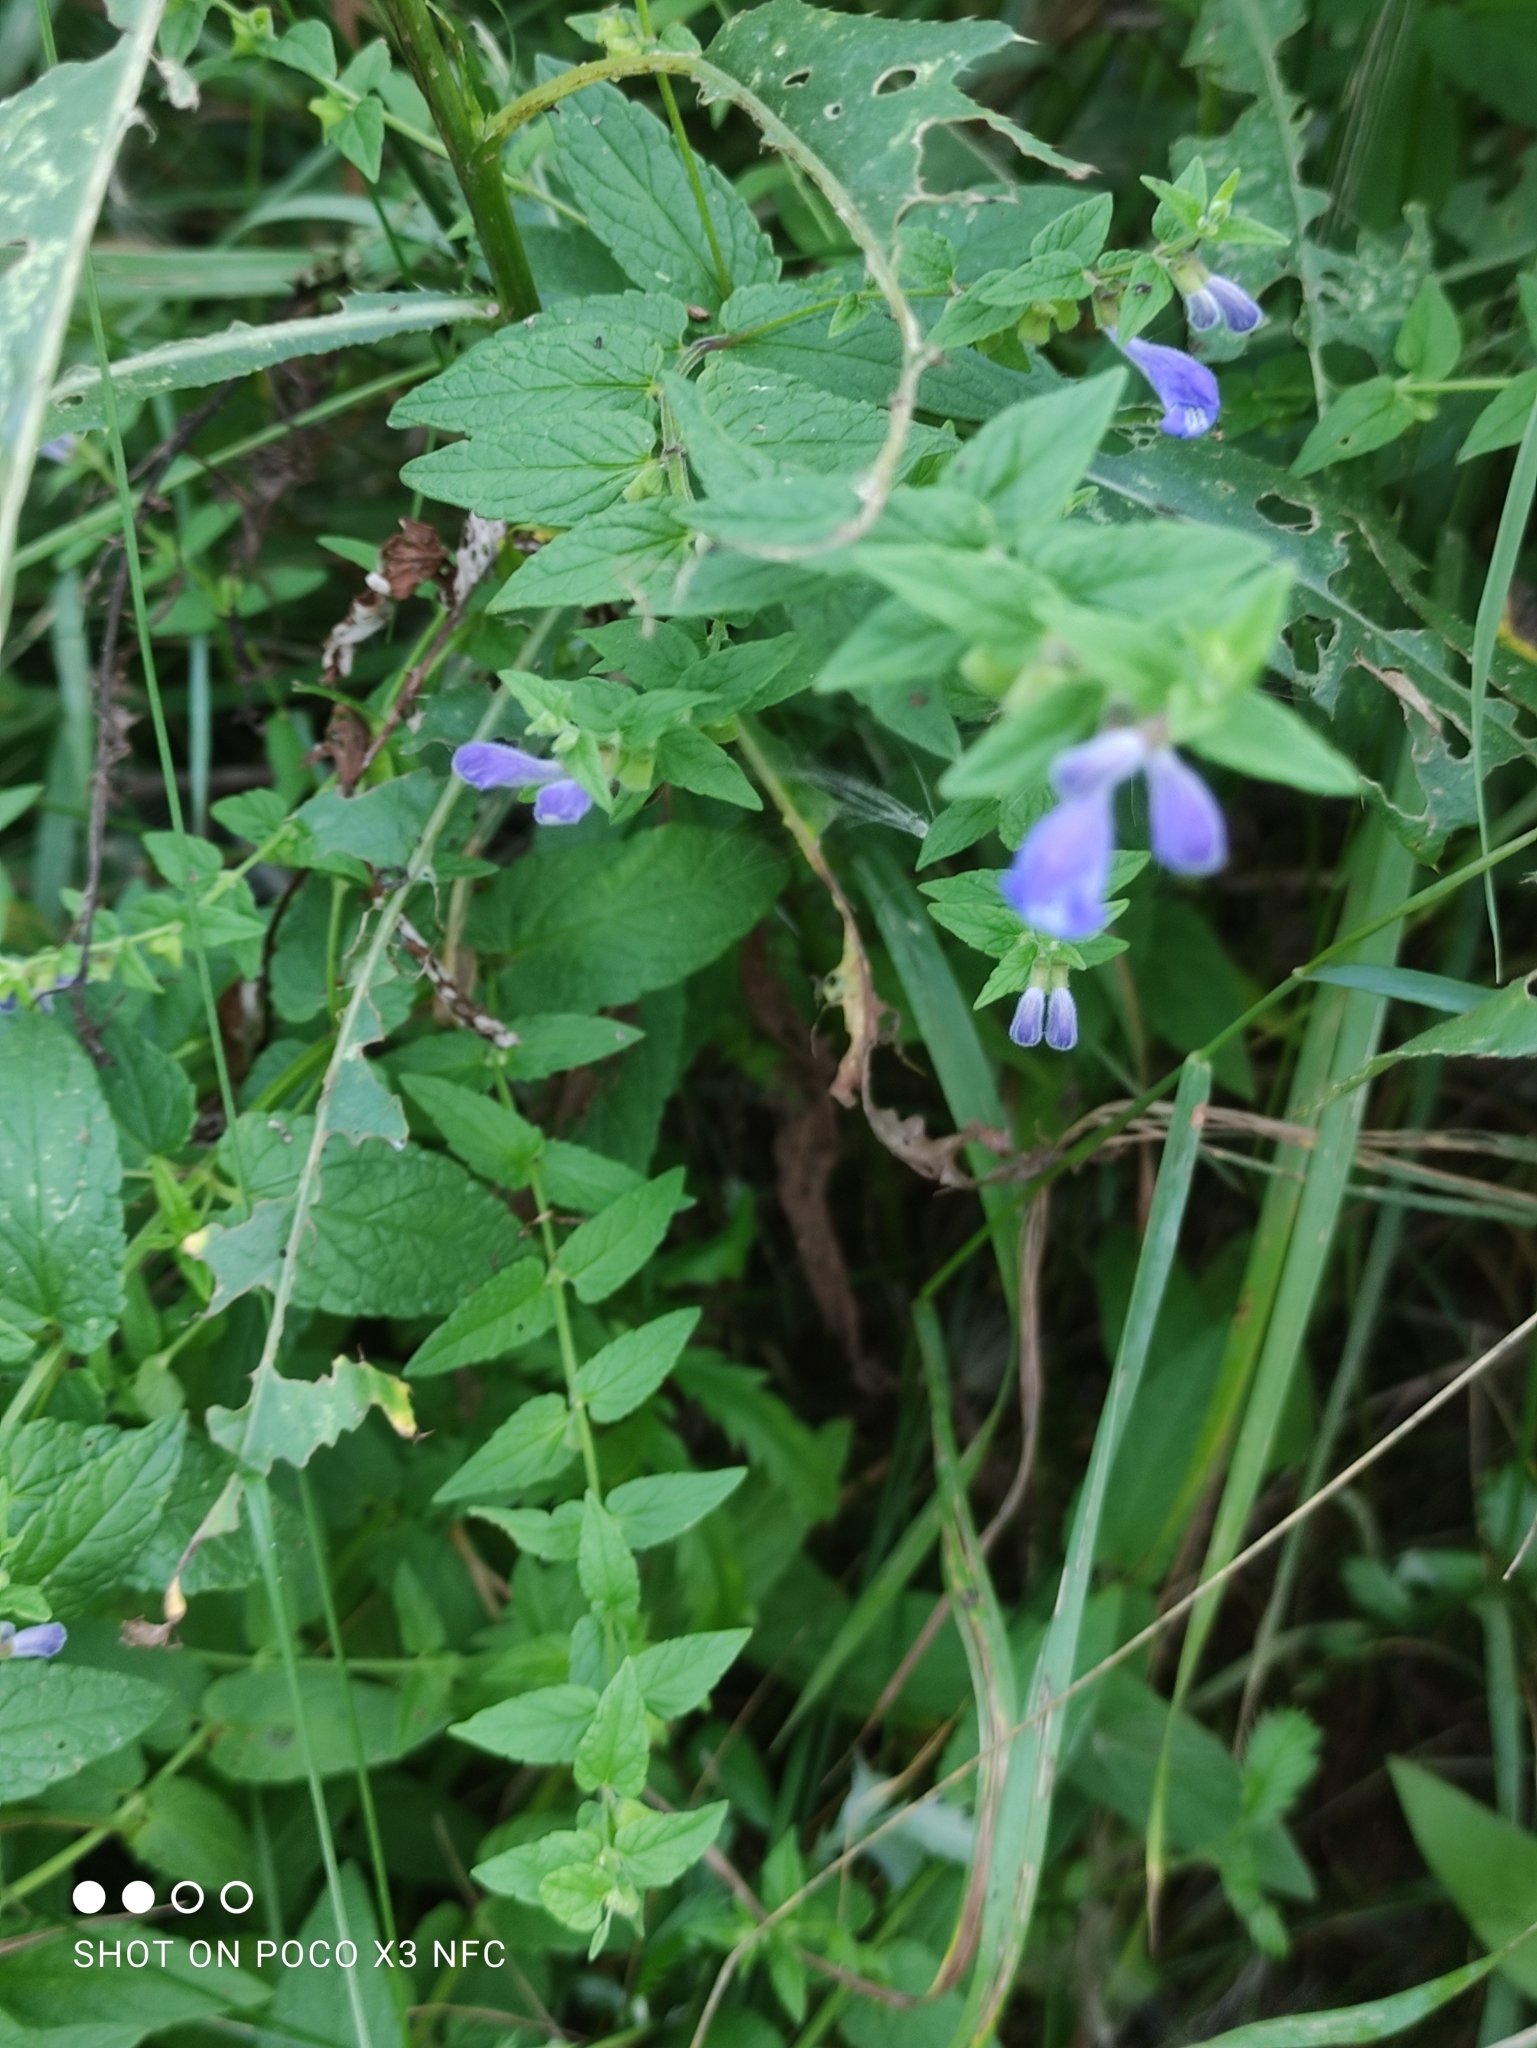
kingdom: Plantae
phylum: Tracheophyta
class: Magnoliopsida
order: Lamiales
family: Lamiaceae
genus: Scutellaria
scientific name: Scutellaria galericulata
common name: Skullcap
